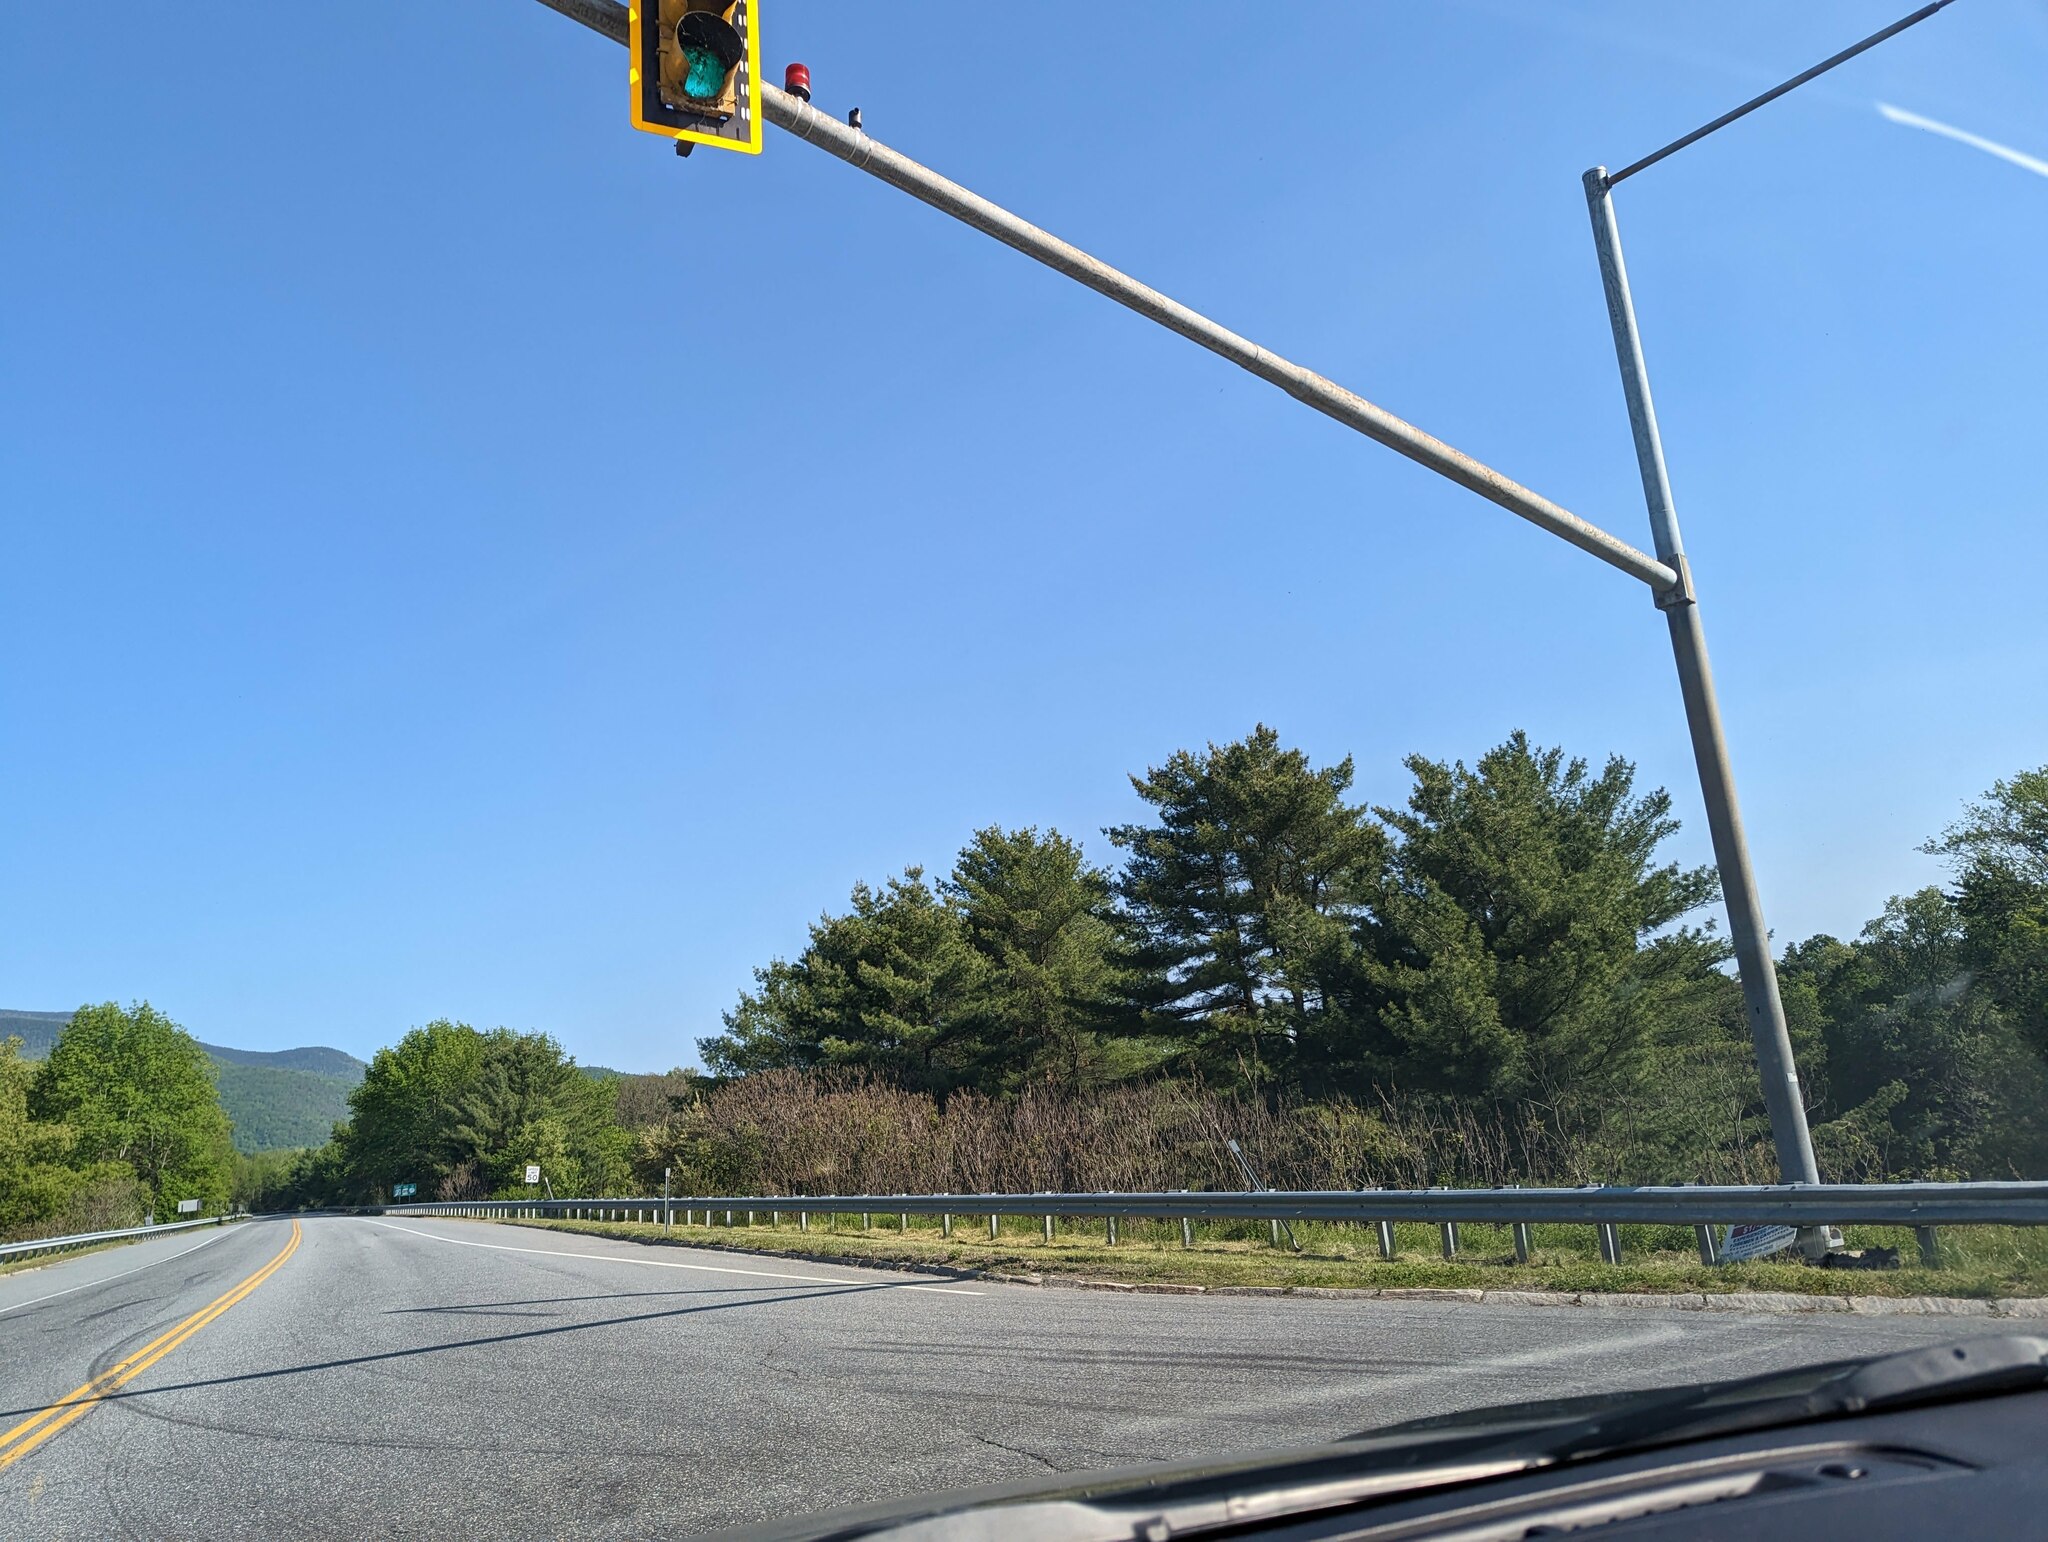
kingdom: Plantae
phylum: Tracheophyta
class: Pinopsida
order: Pinales
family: Pinaceae
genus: Pinus
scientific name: Pinus strobus
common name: Weymouth pine
